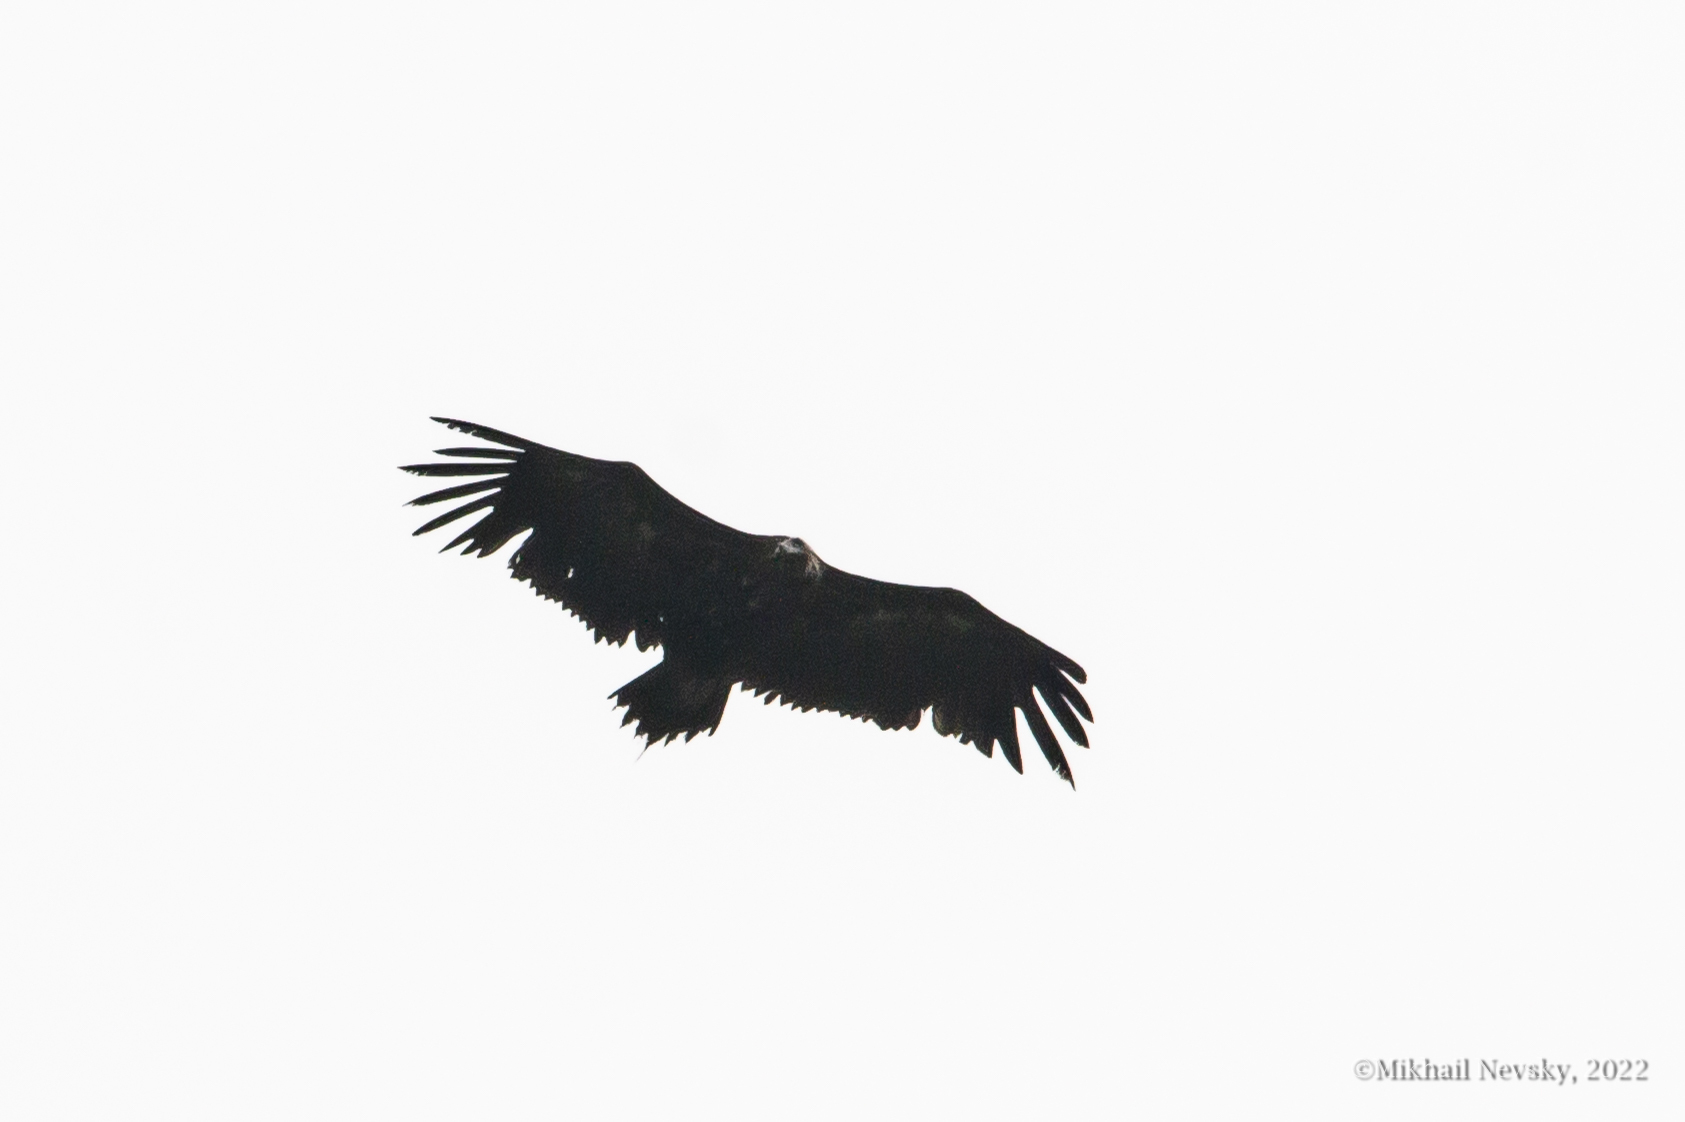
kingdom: Animalia
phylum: Chordata
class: Aves
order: Accipitriformes
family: Accipitridae
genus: Aegypius
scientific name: Aegypius monachus
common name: Cinereous vulture
